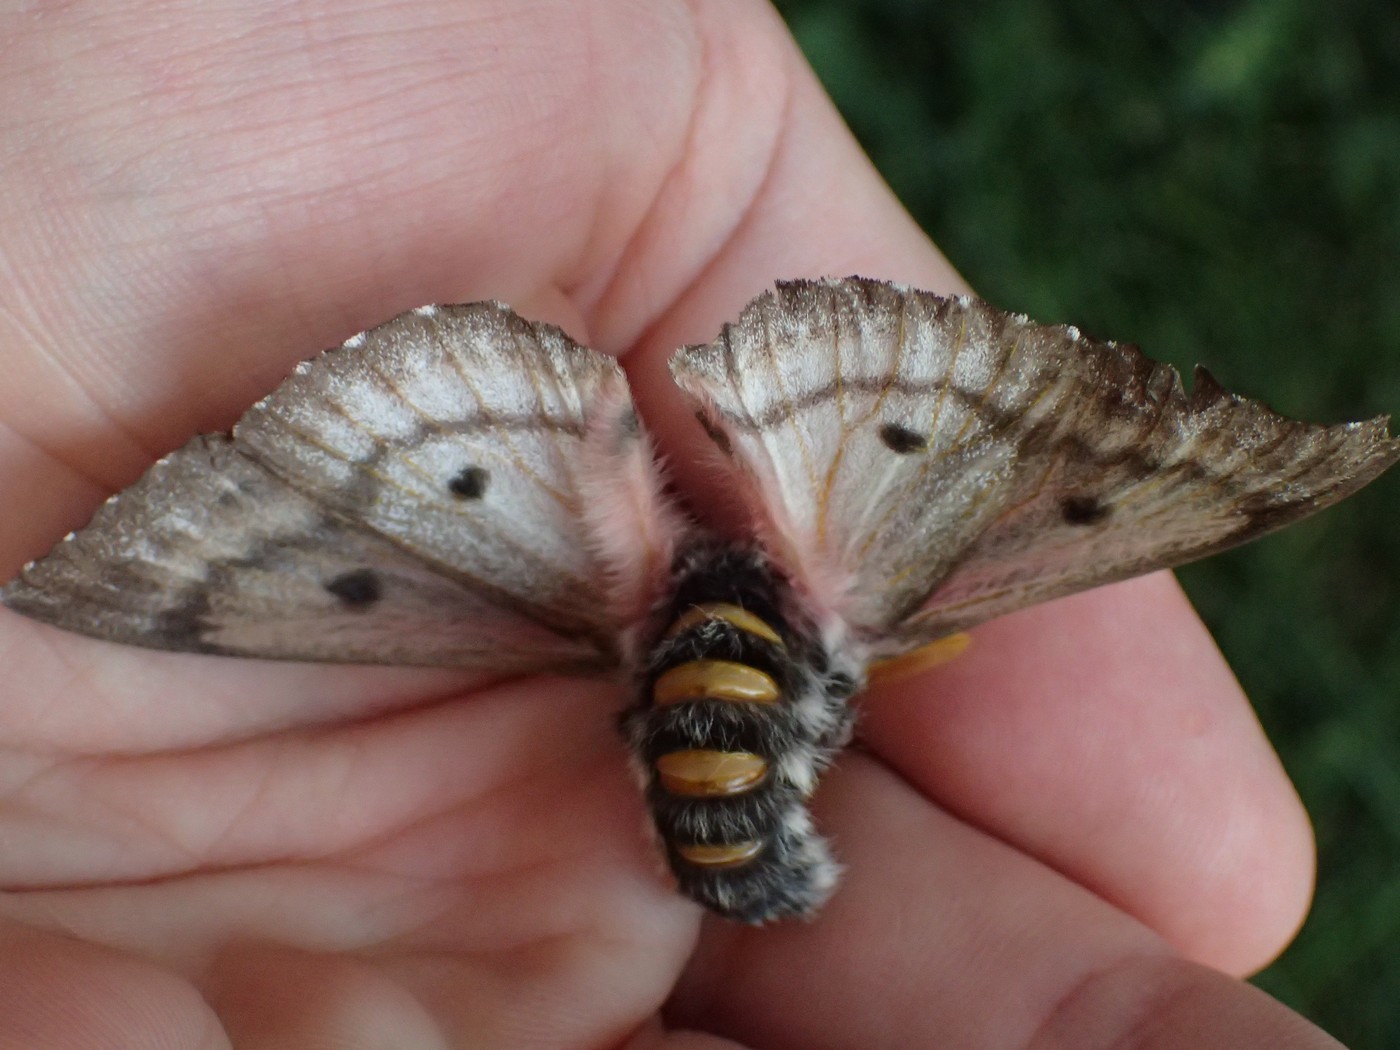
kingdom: Animalia
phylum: Arthropoda
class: Insecta
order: Lepidoptera
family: Saturniidae
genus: Coloradia
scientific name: Coloradia pandora
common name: Pandora pinemoth
